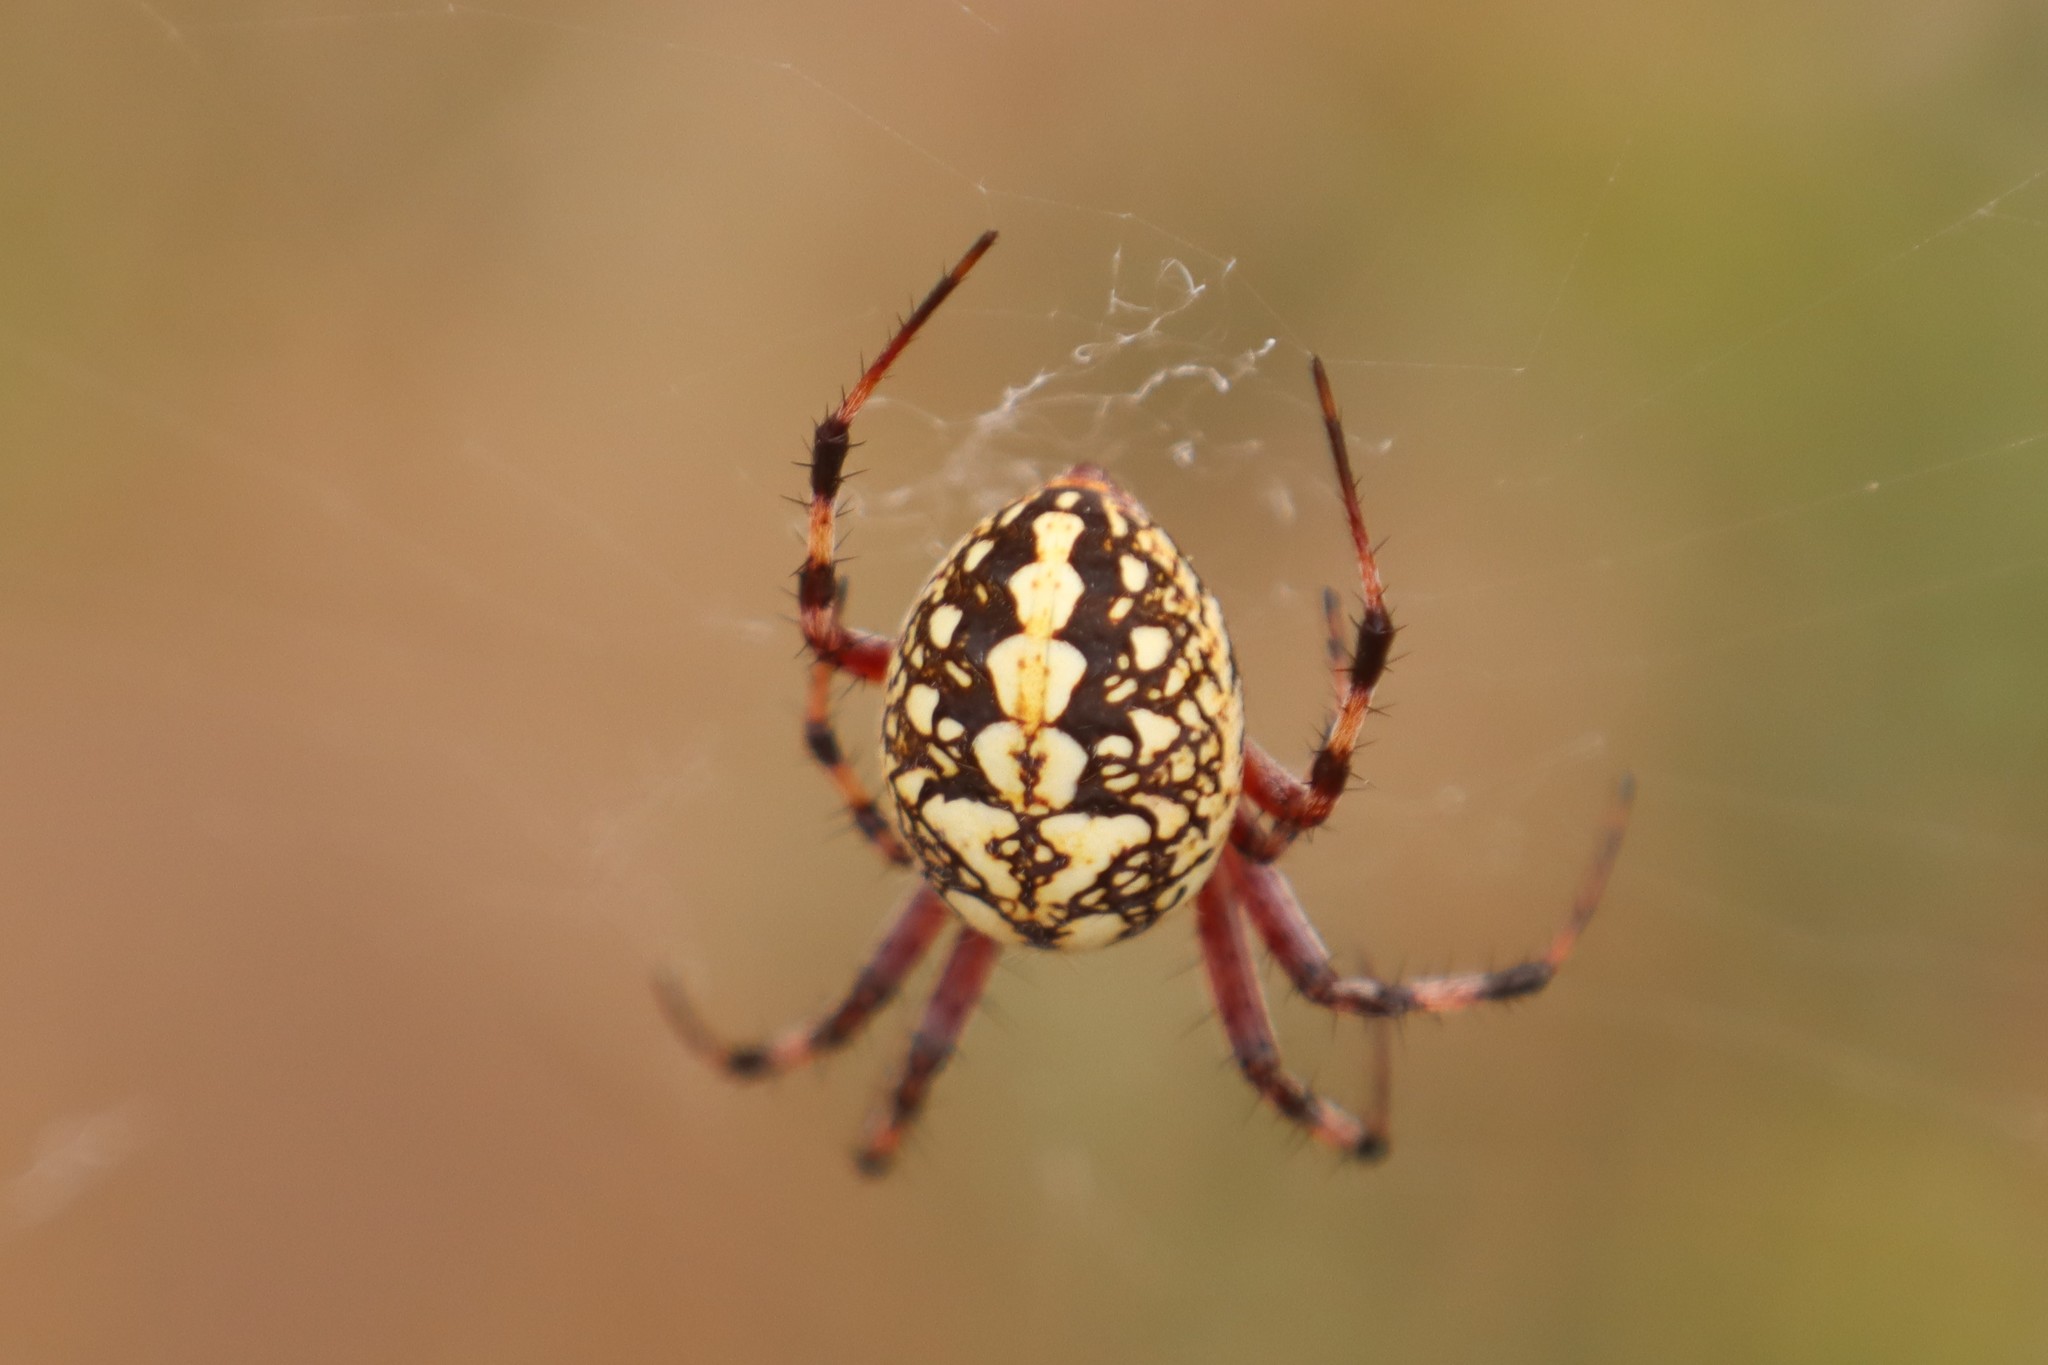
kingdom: Animalia
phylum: Arthropoda
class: Arachnida
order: Araneae
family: Araneidae
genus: Neoscona
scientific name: Neoscona oaxacensis
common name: Orb weavers
